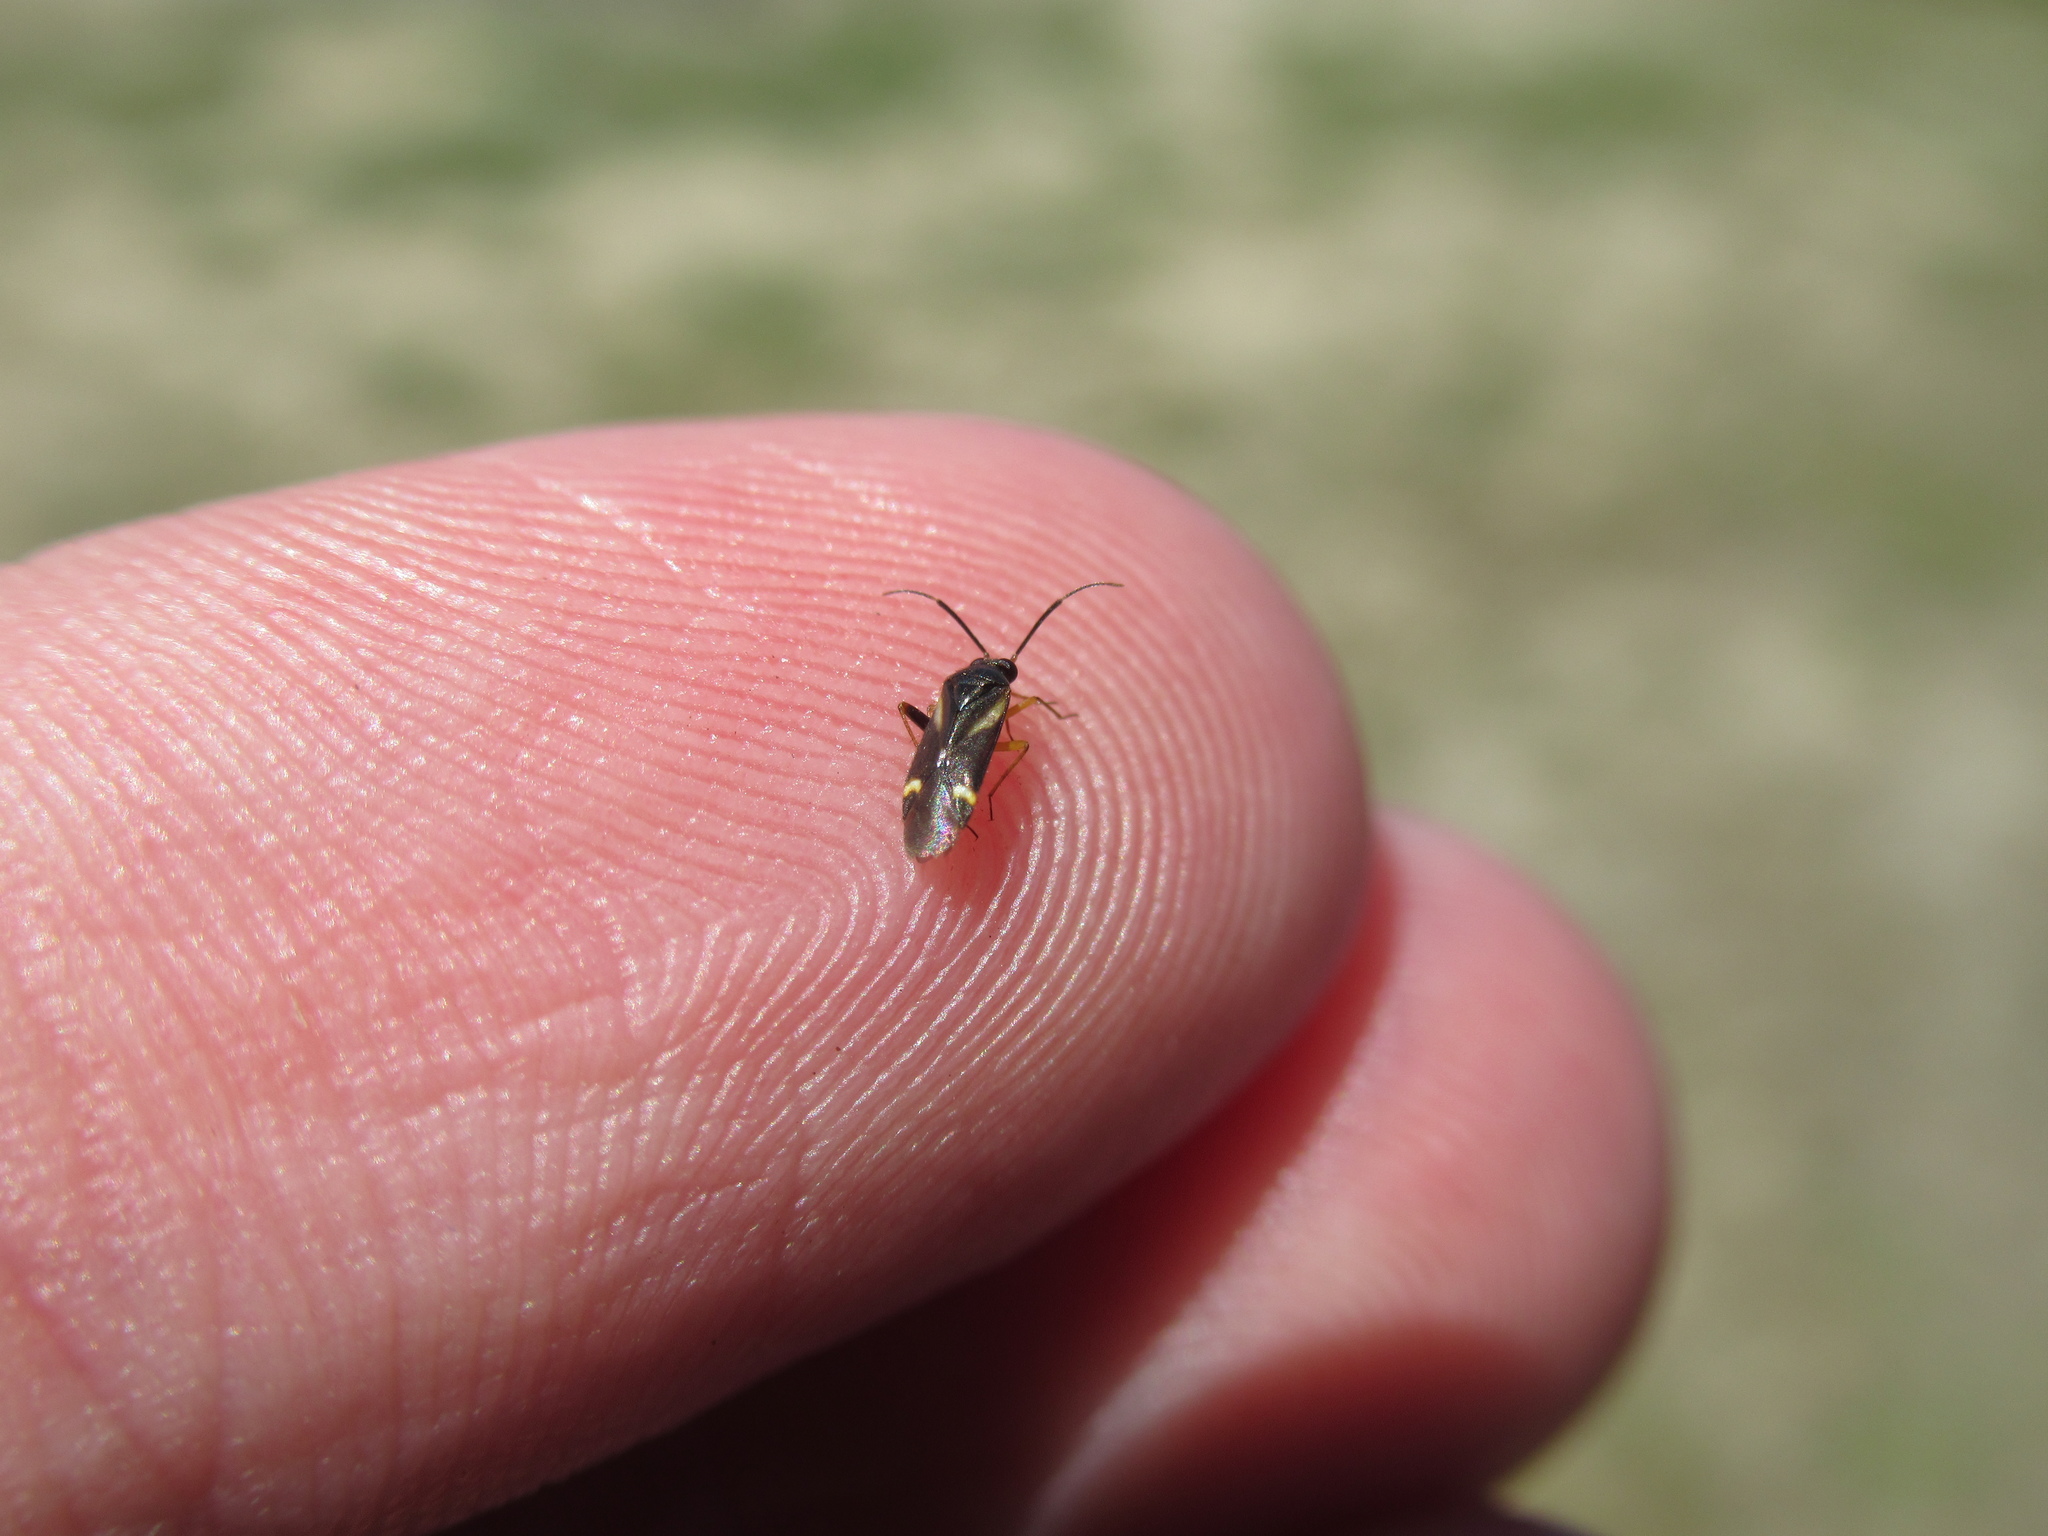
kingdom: Animalia
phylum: Arthropoda
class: Insecta
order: Hemiptera
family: Miridae
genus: Ausejanus
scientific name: Ausejanus albisignatus
